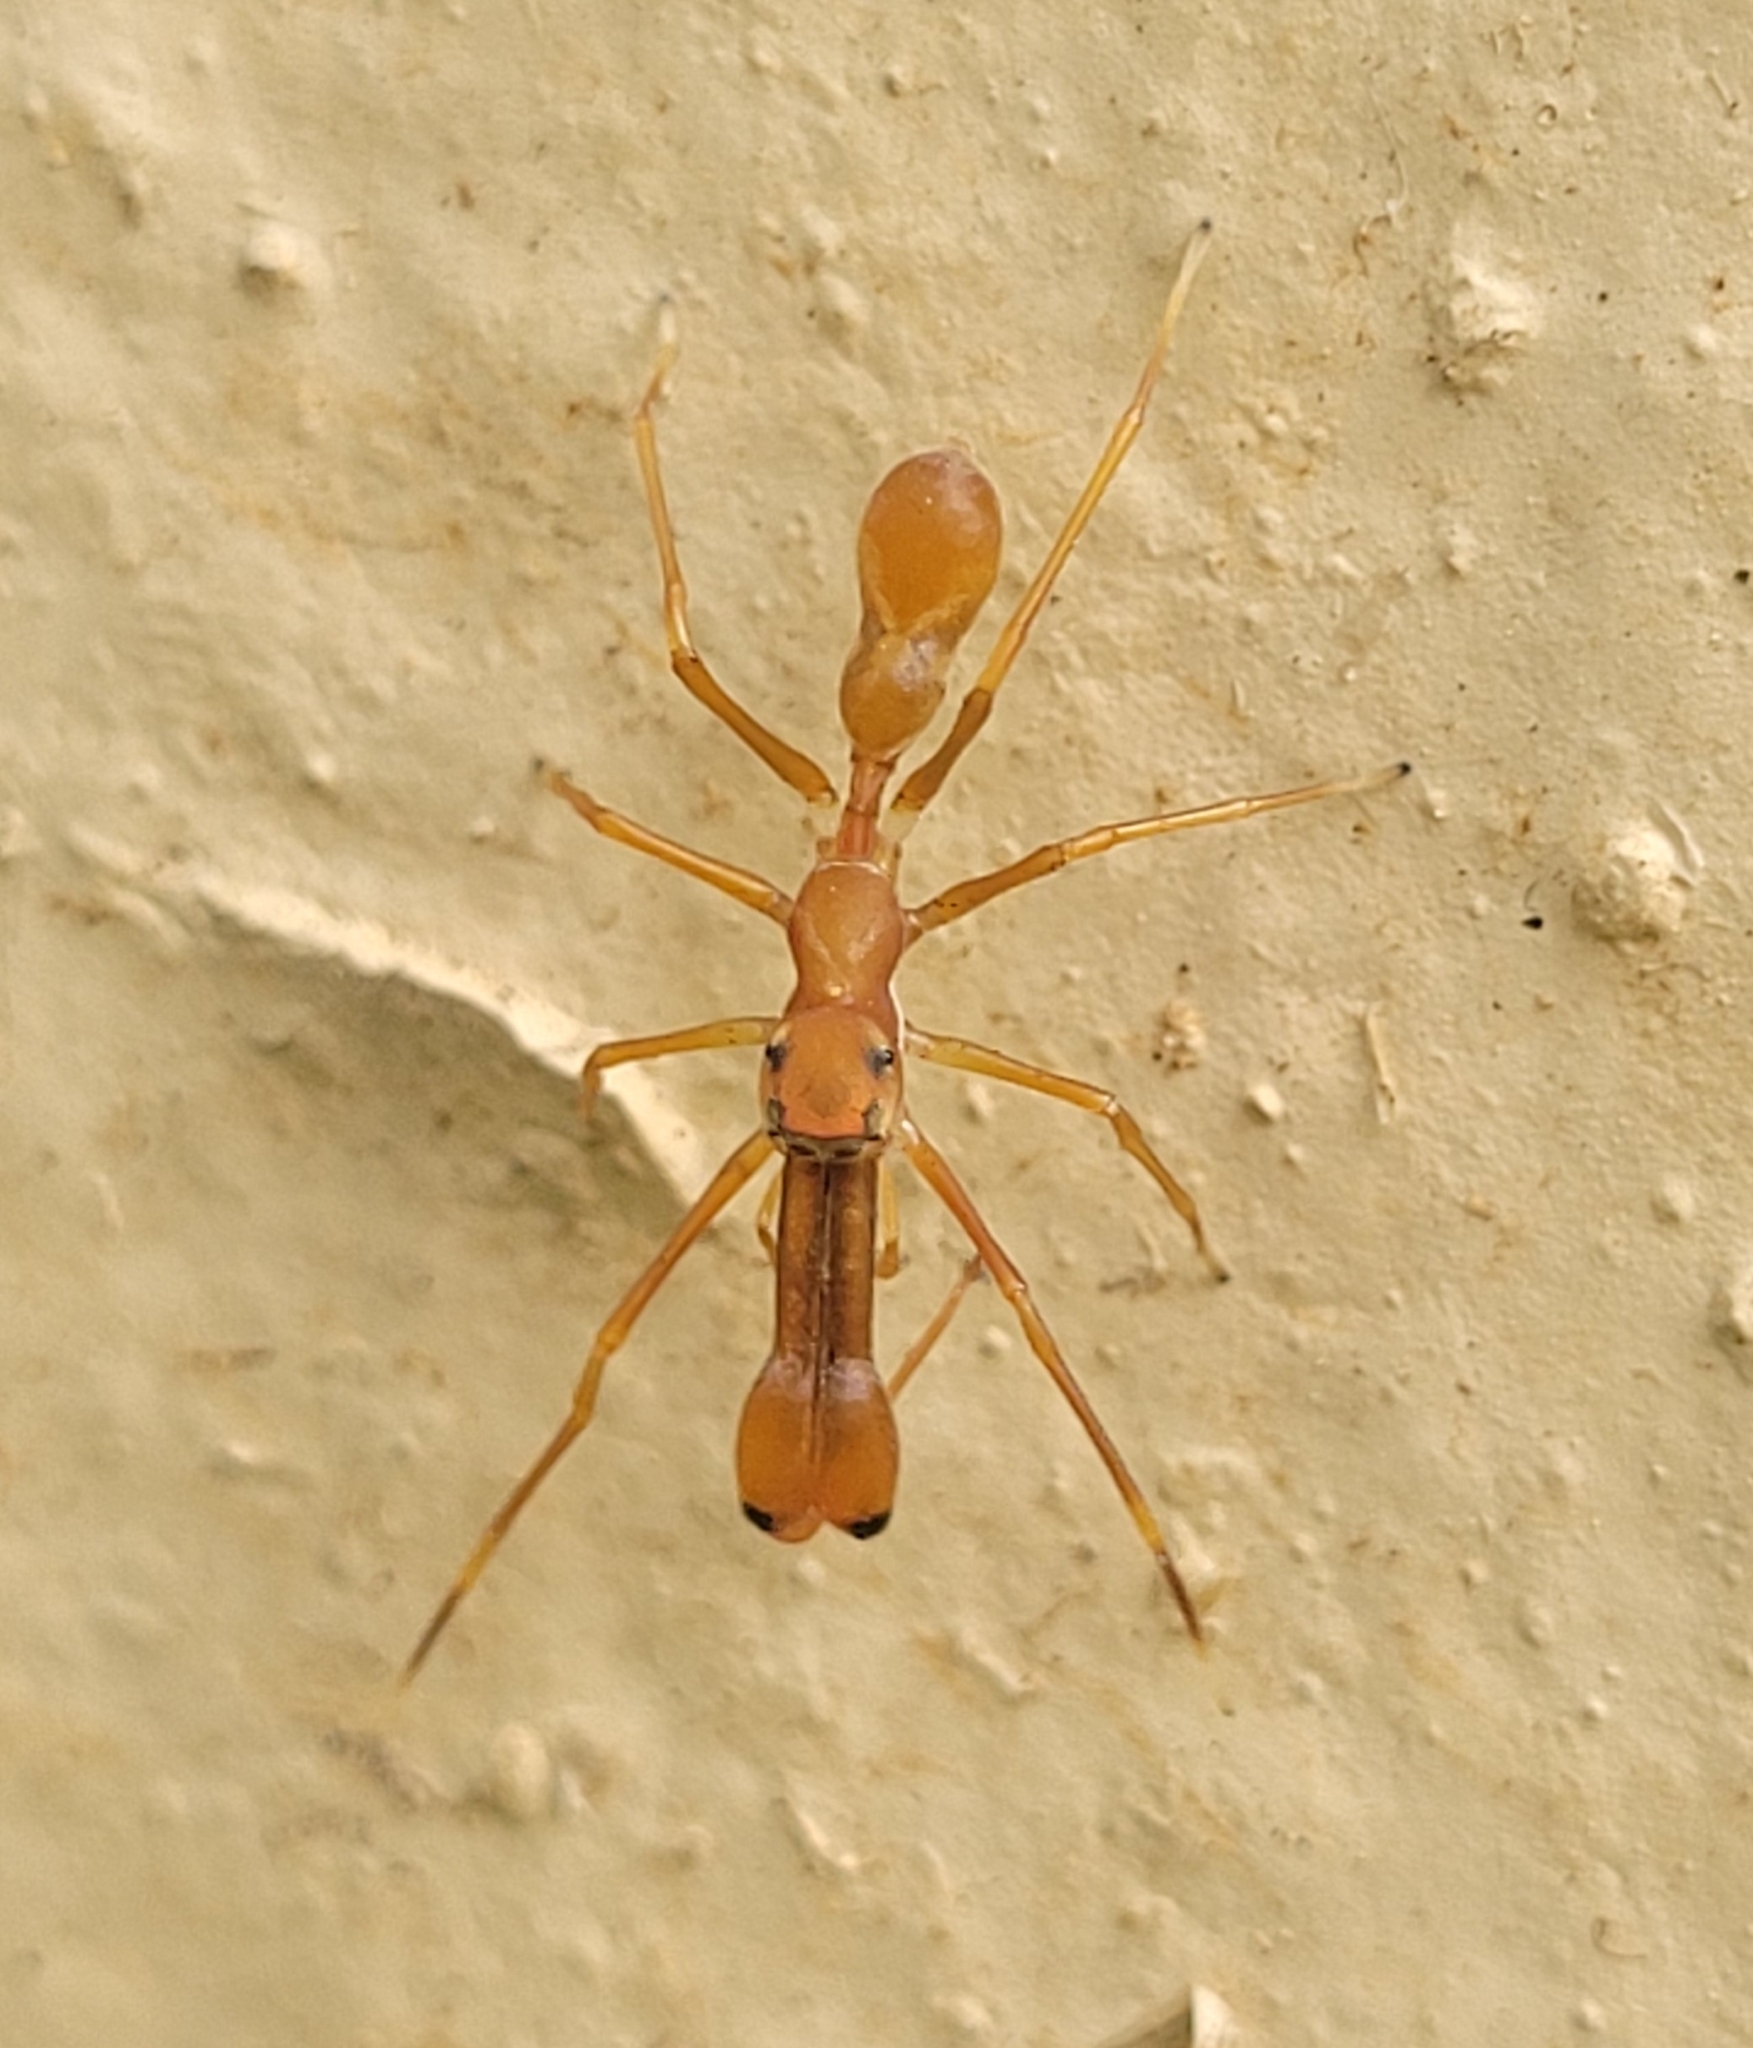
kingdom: Animalia
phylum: Arthropoda
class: Arachnida
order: Araneae
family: Salticidae
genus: Myrmaplata
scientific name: Myrmaplata plataleoides
